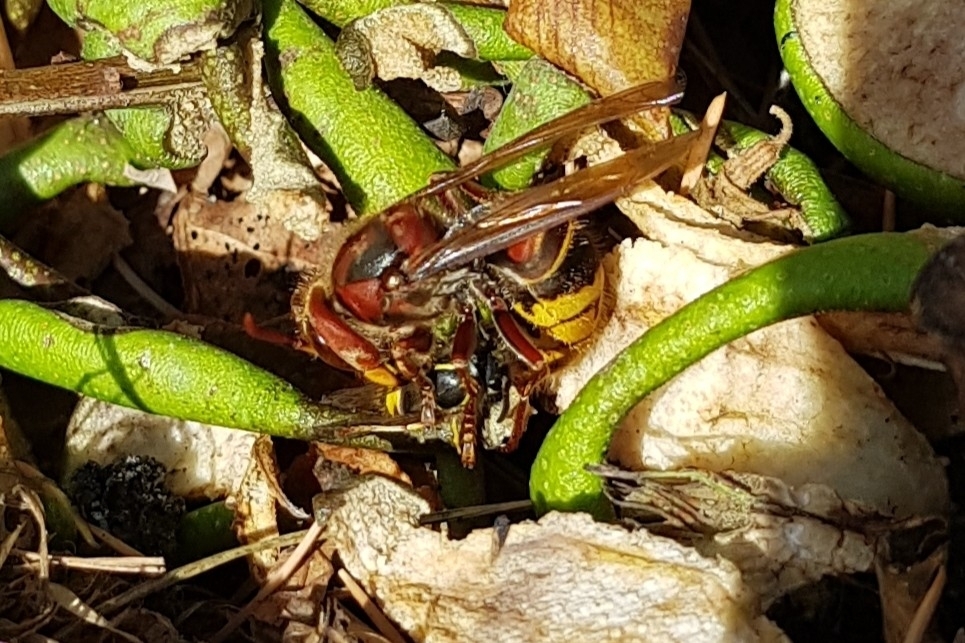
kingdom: Animalia
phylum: Arthropoda
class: Insecta
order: Hymenoptera
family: Vespidae
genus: Vespa
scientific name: Vespa crabro
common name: Hornet
